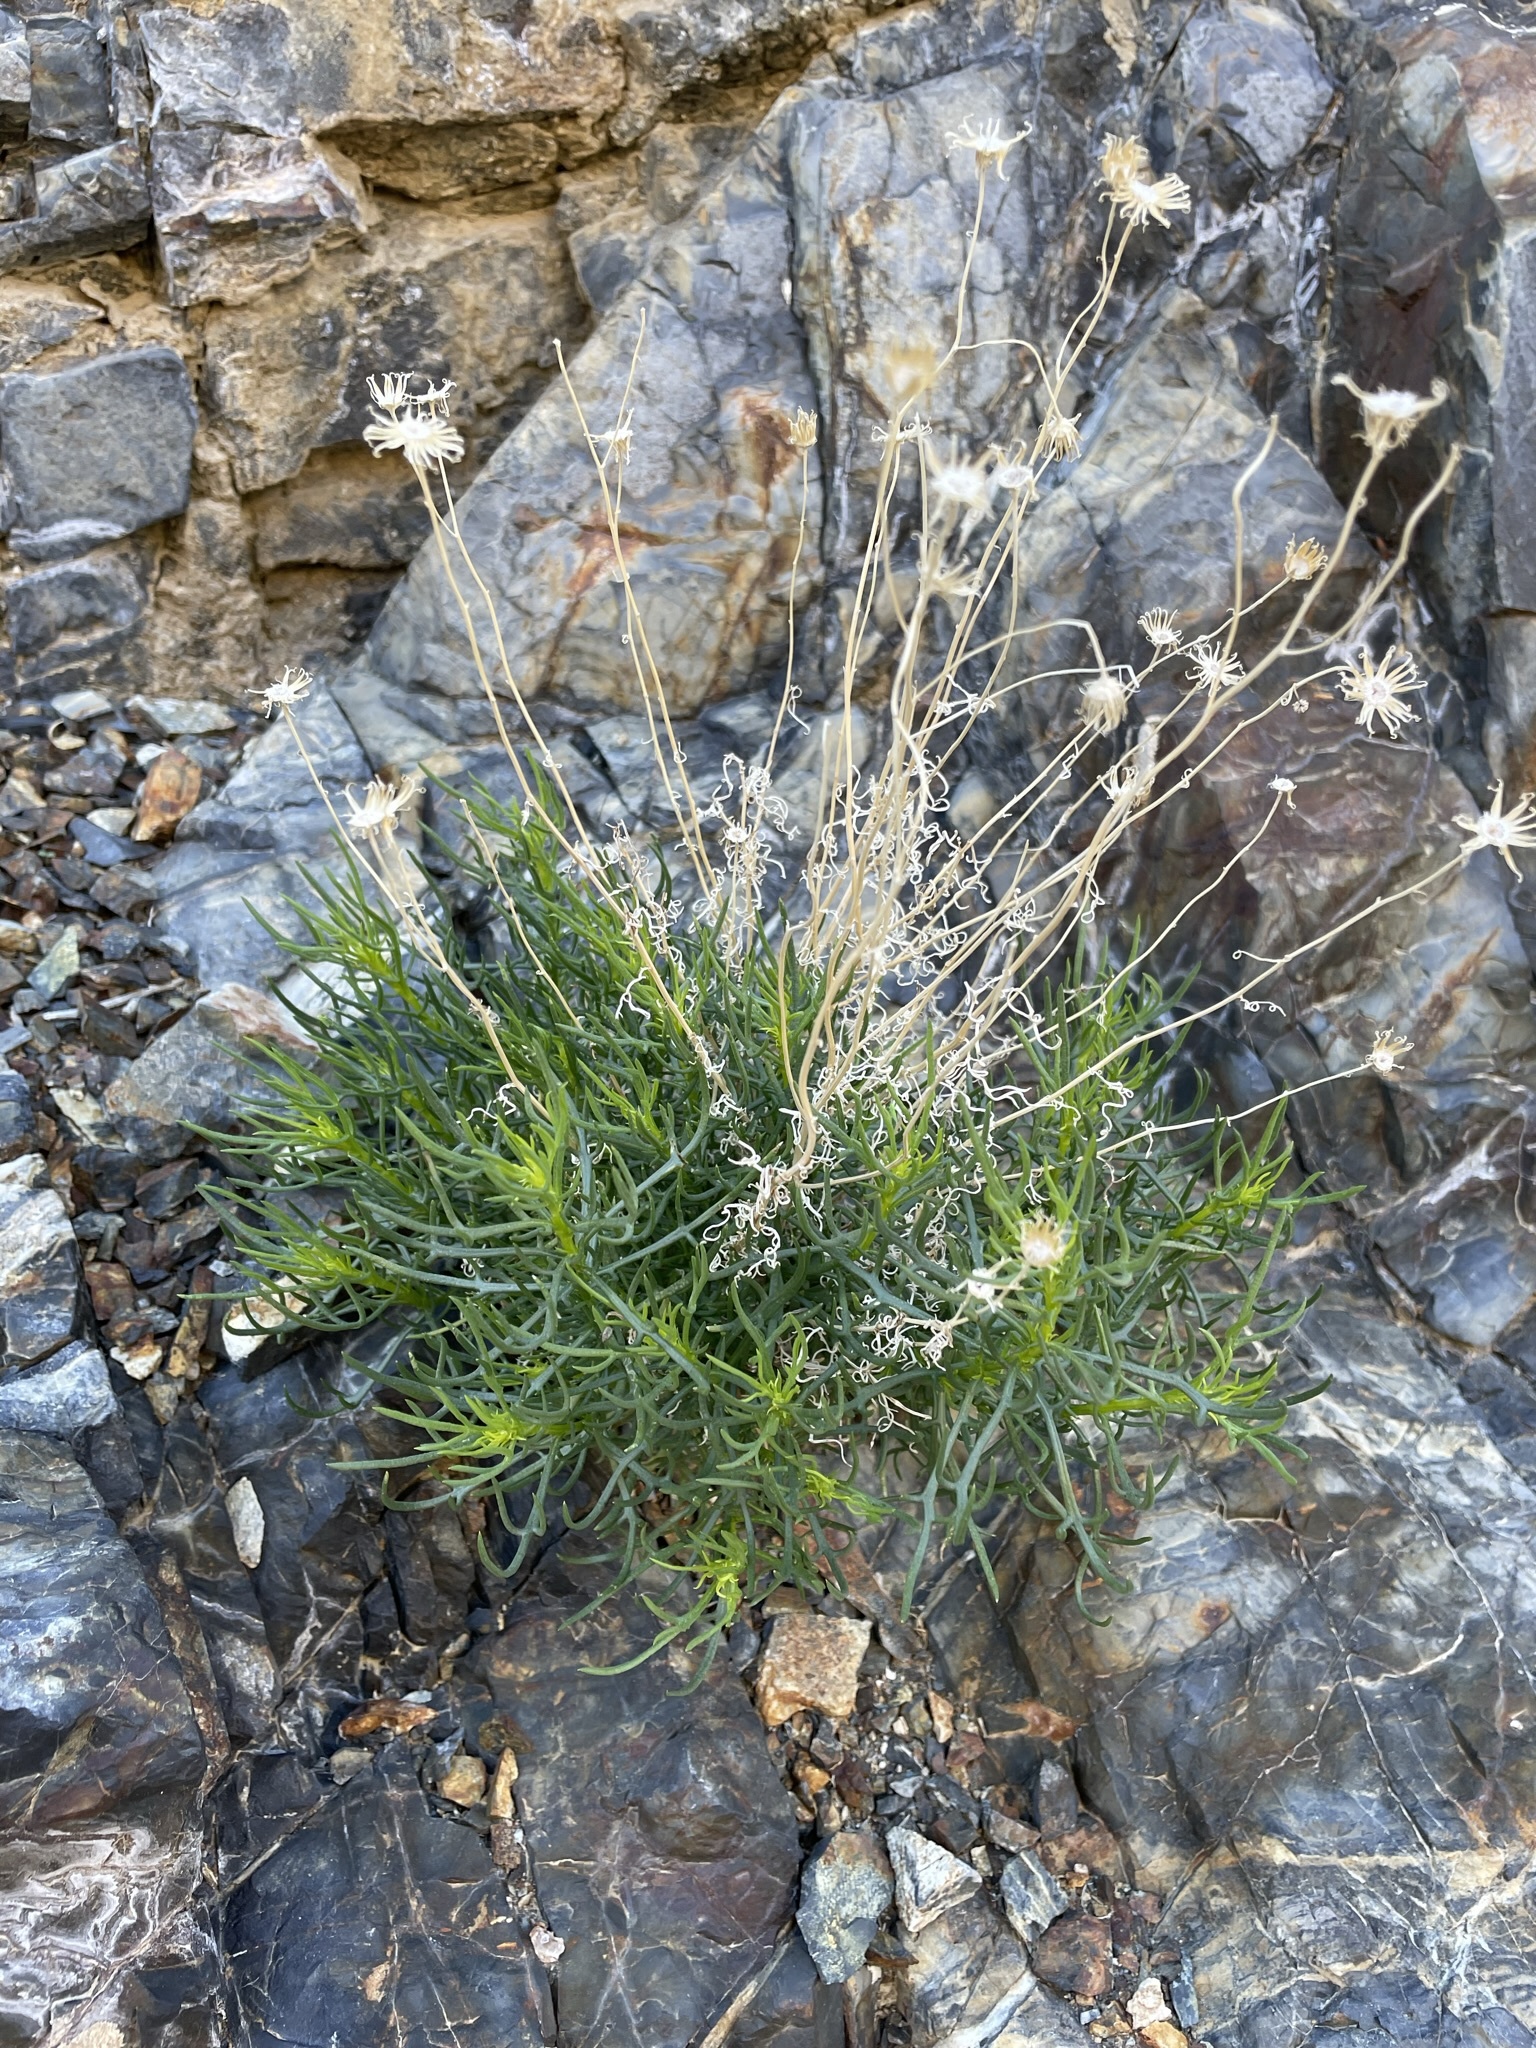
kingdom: Plantae
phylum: Tracheophyta
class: Magnoliopsida
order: Asterales
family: Asteraceae
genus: Senecio
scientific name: Senecio flaccidus
